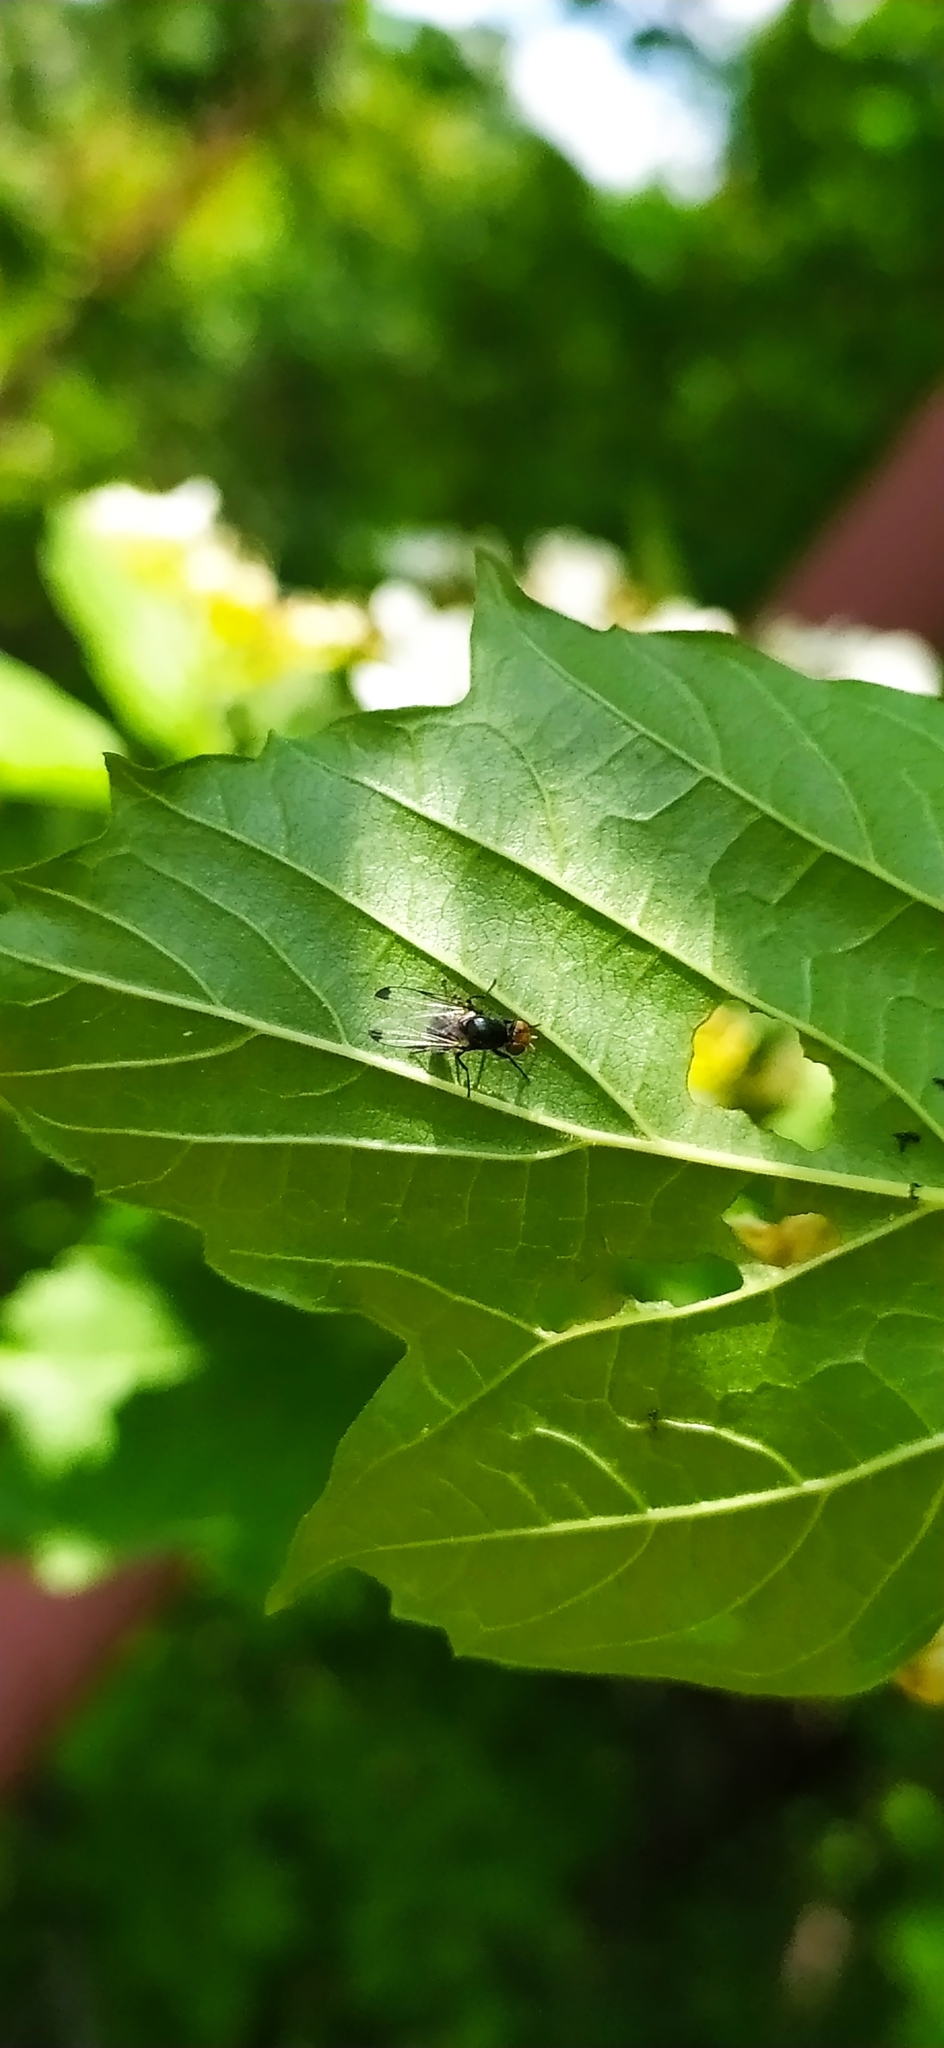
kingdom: Animalia
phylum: Arthropoda
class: Insecta
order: Diptera
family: Ulidiidae
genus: Seioptera
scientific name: Seioptera vibrans
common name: Dark-tipped wingwaver
